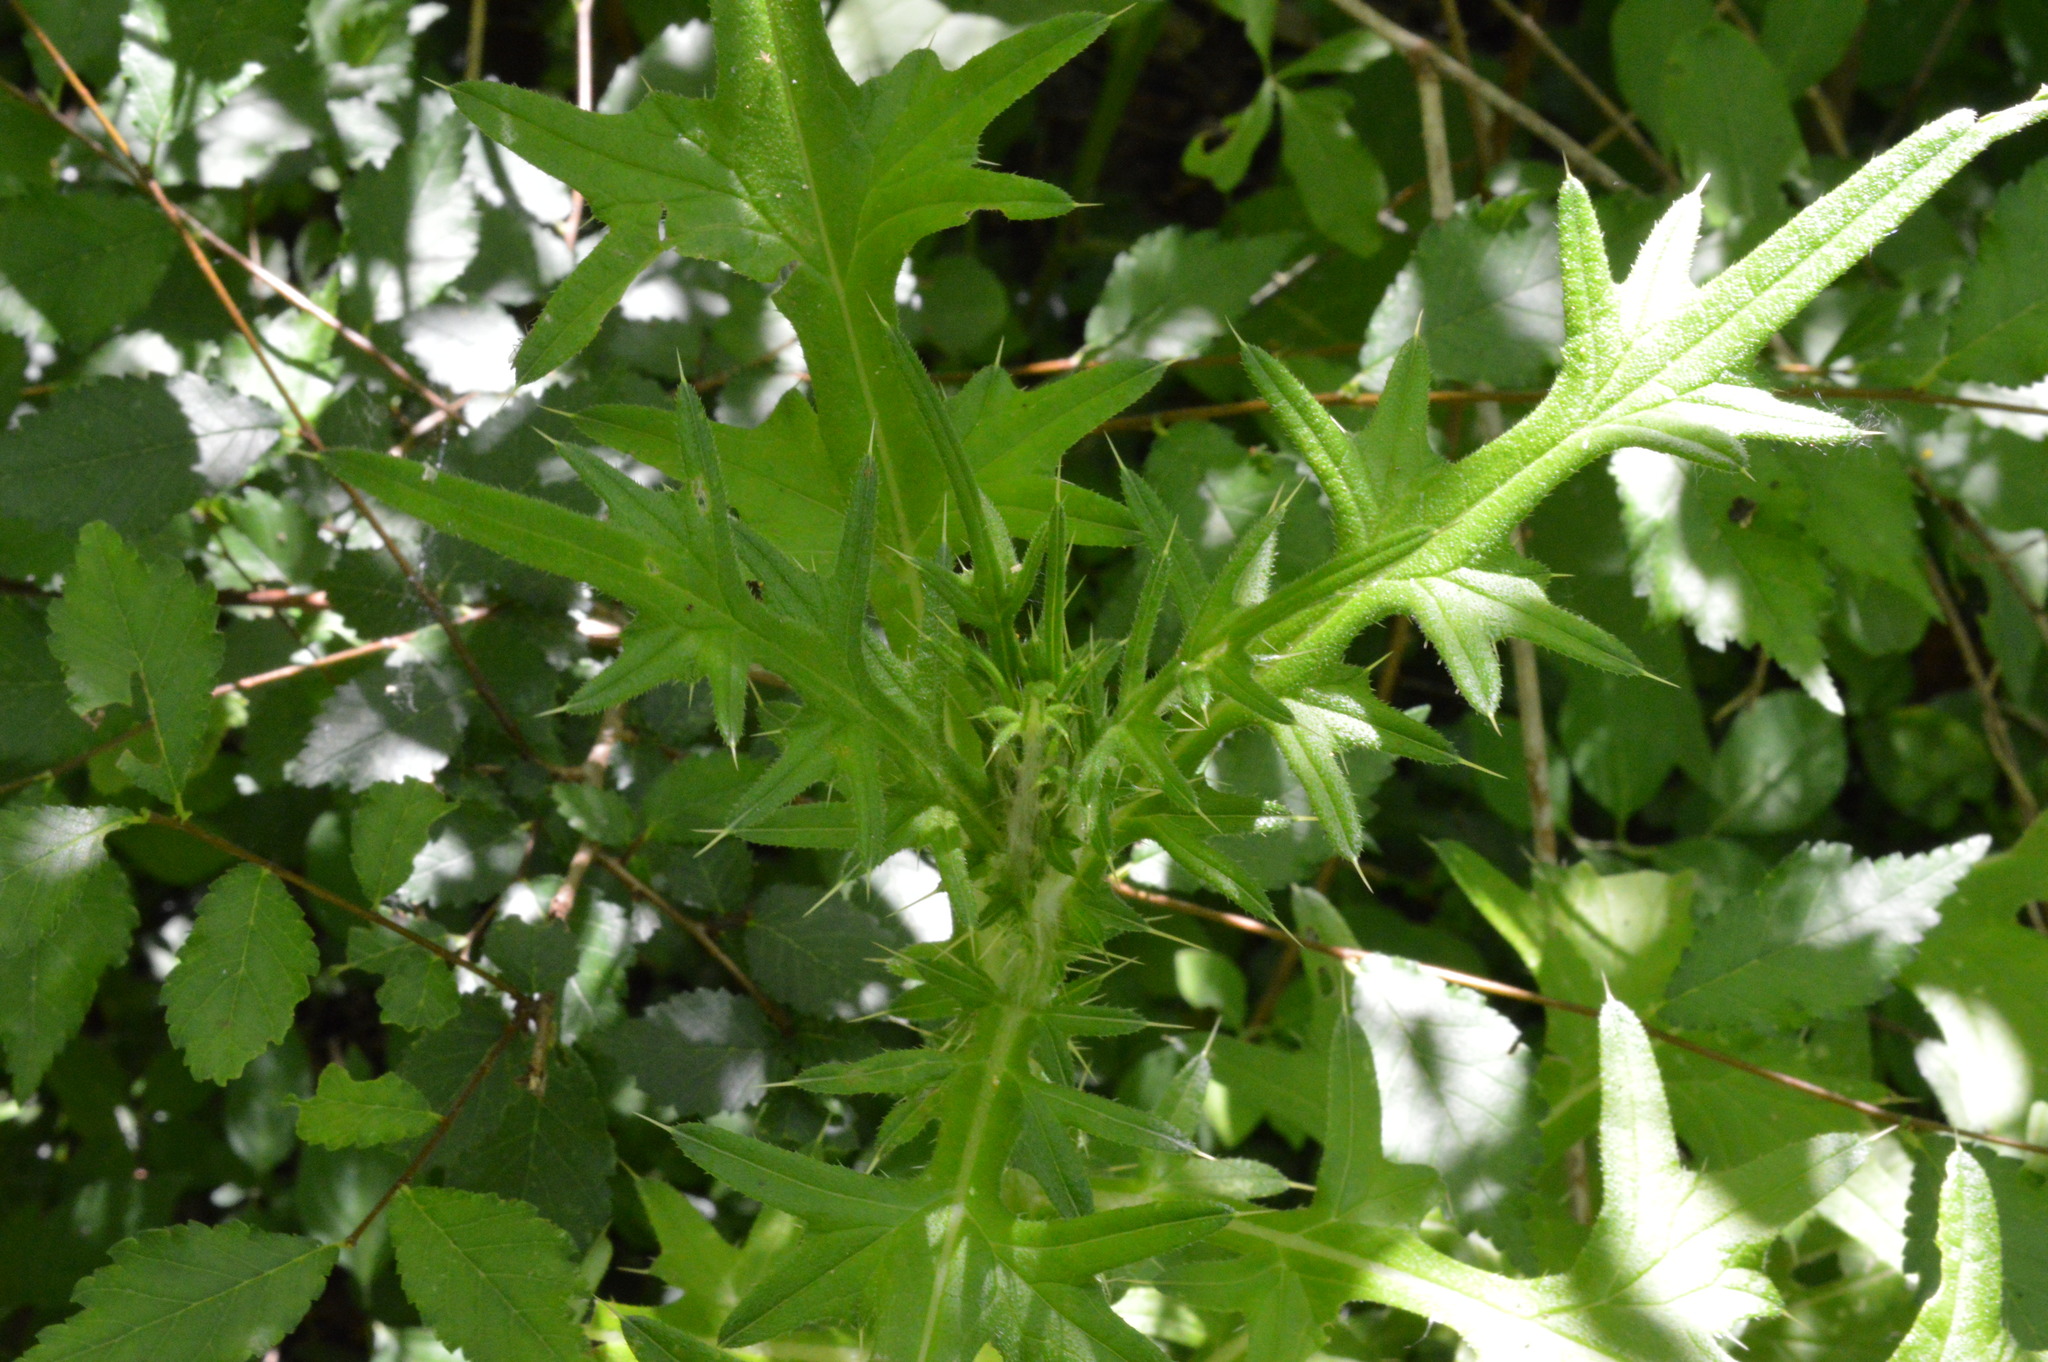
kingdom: Plantae
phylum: Tracheophyta
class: Magnoliopsida
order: Asterales
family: Asteraceae
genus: Cirsium
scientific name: Cirsium vulgare
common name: Bull thistle
